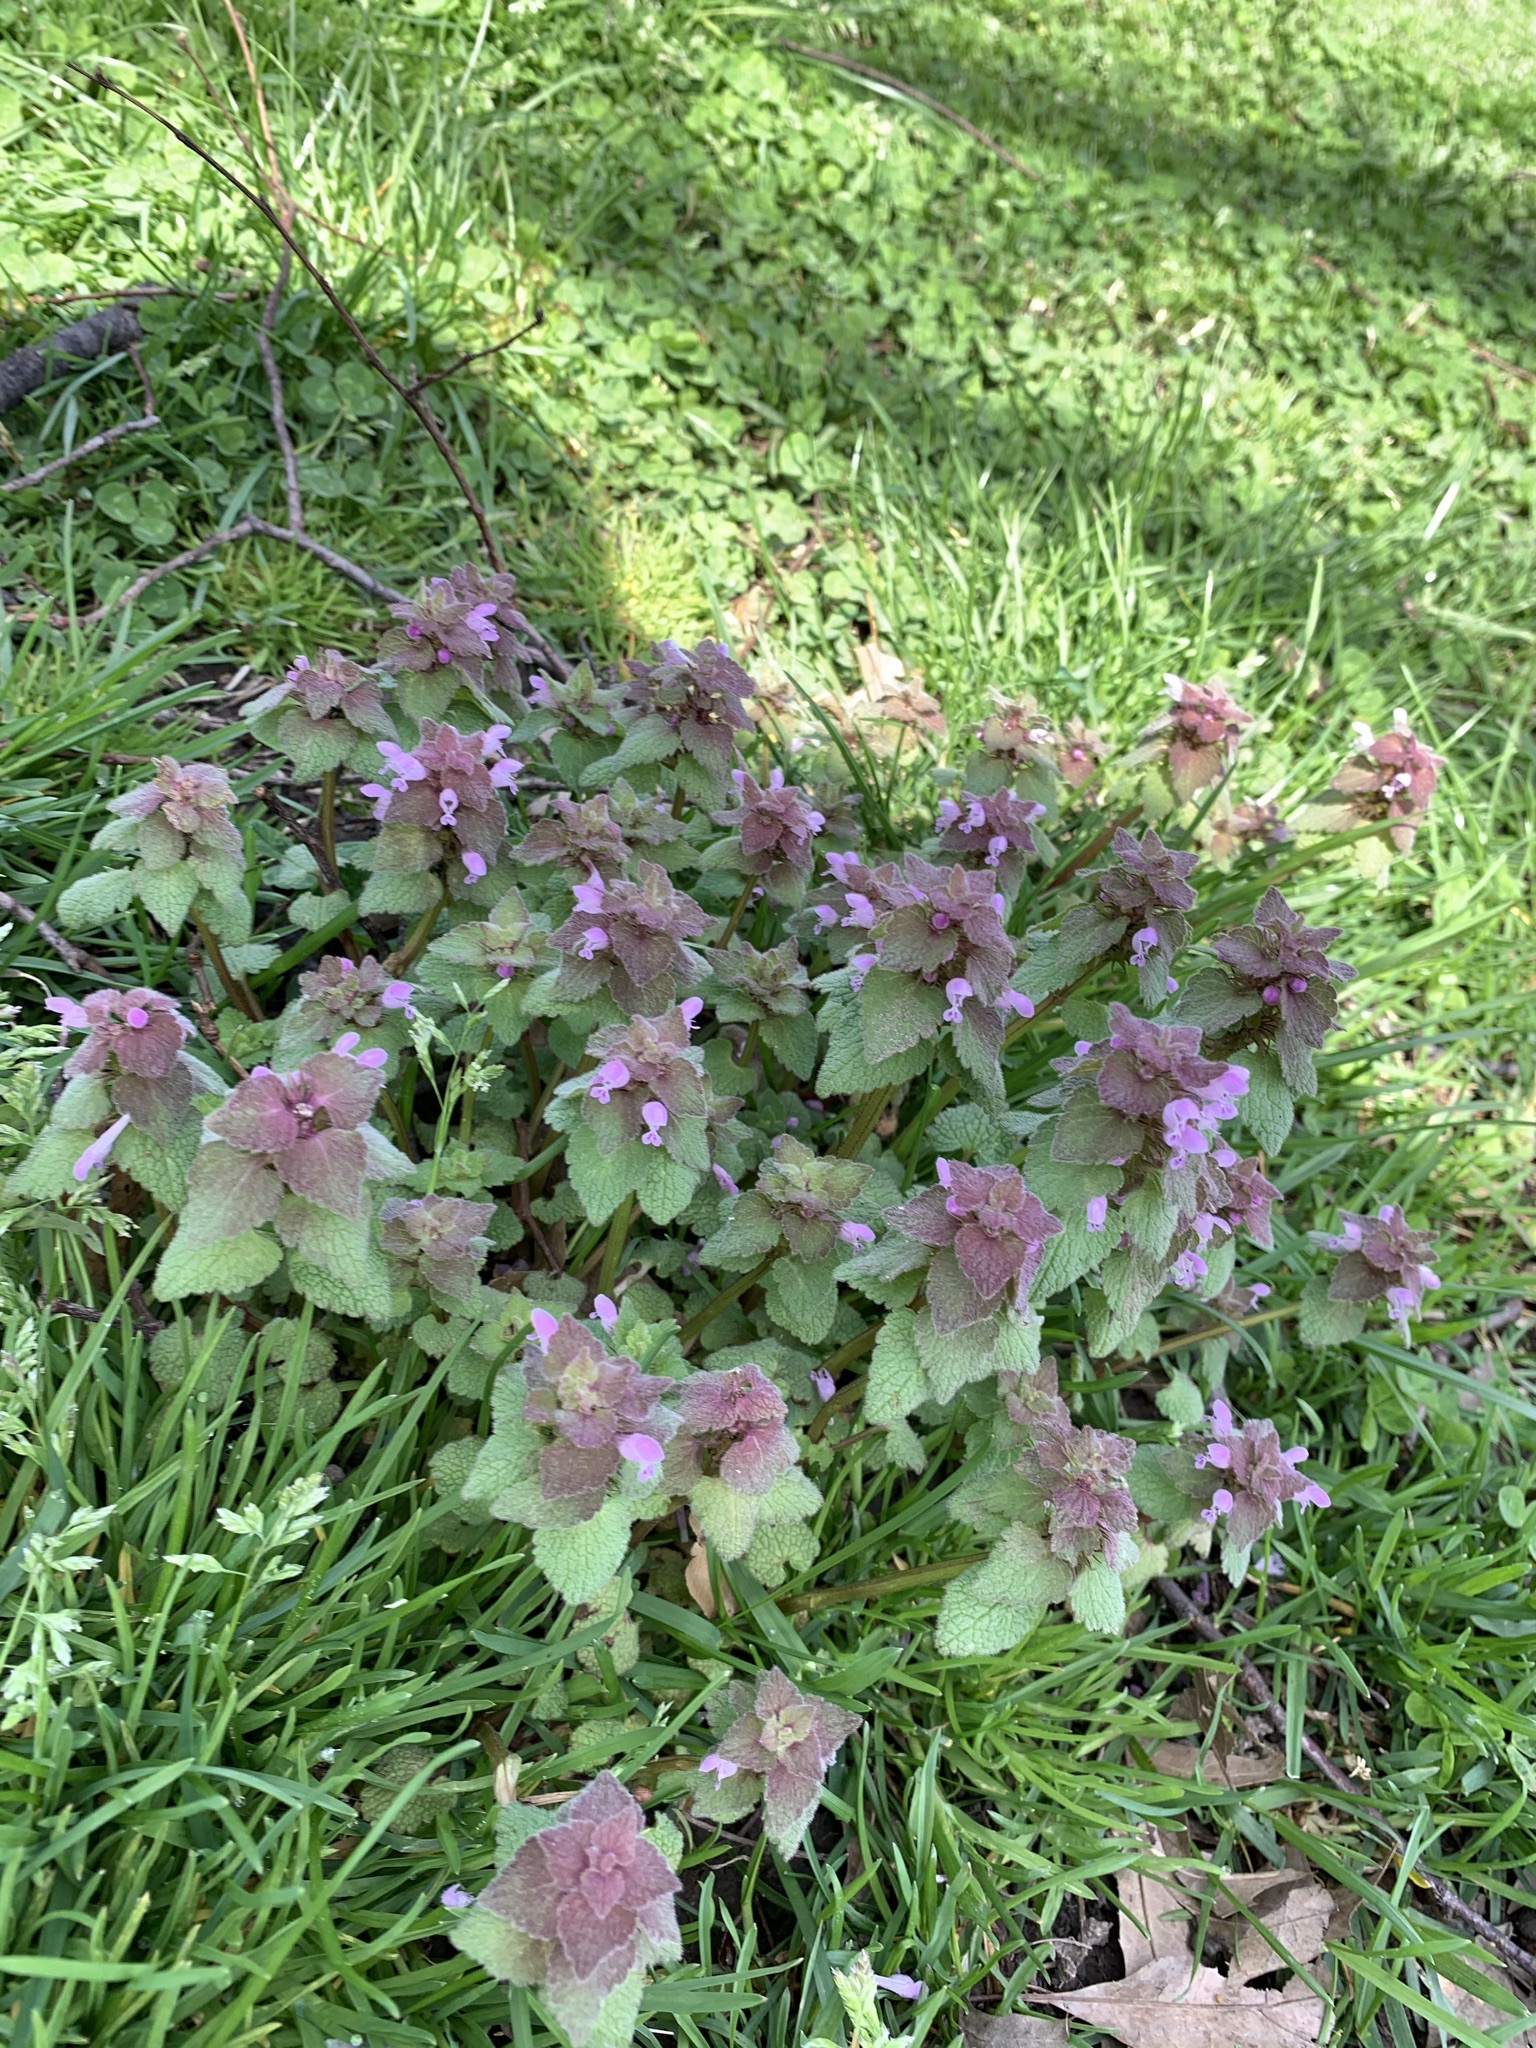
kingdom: Plantae
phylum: Tracheophyta
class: Magnoliopsida
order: Lamiales
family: Lamiaceae
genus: Lamium
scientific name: Lamium purpureum
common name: Red dead-nettle
